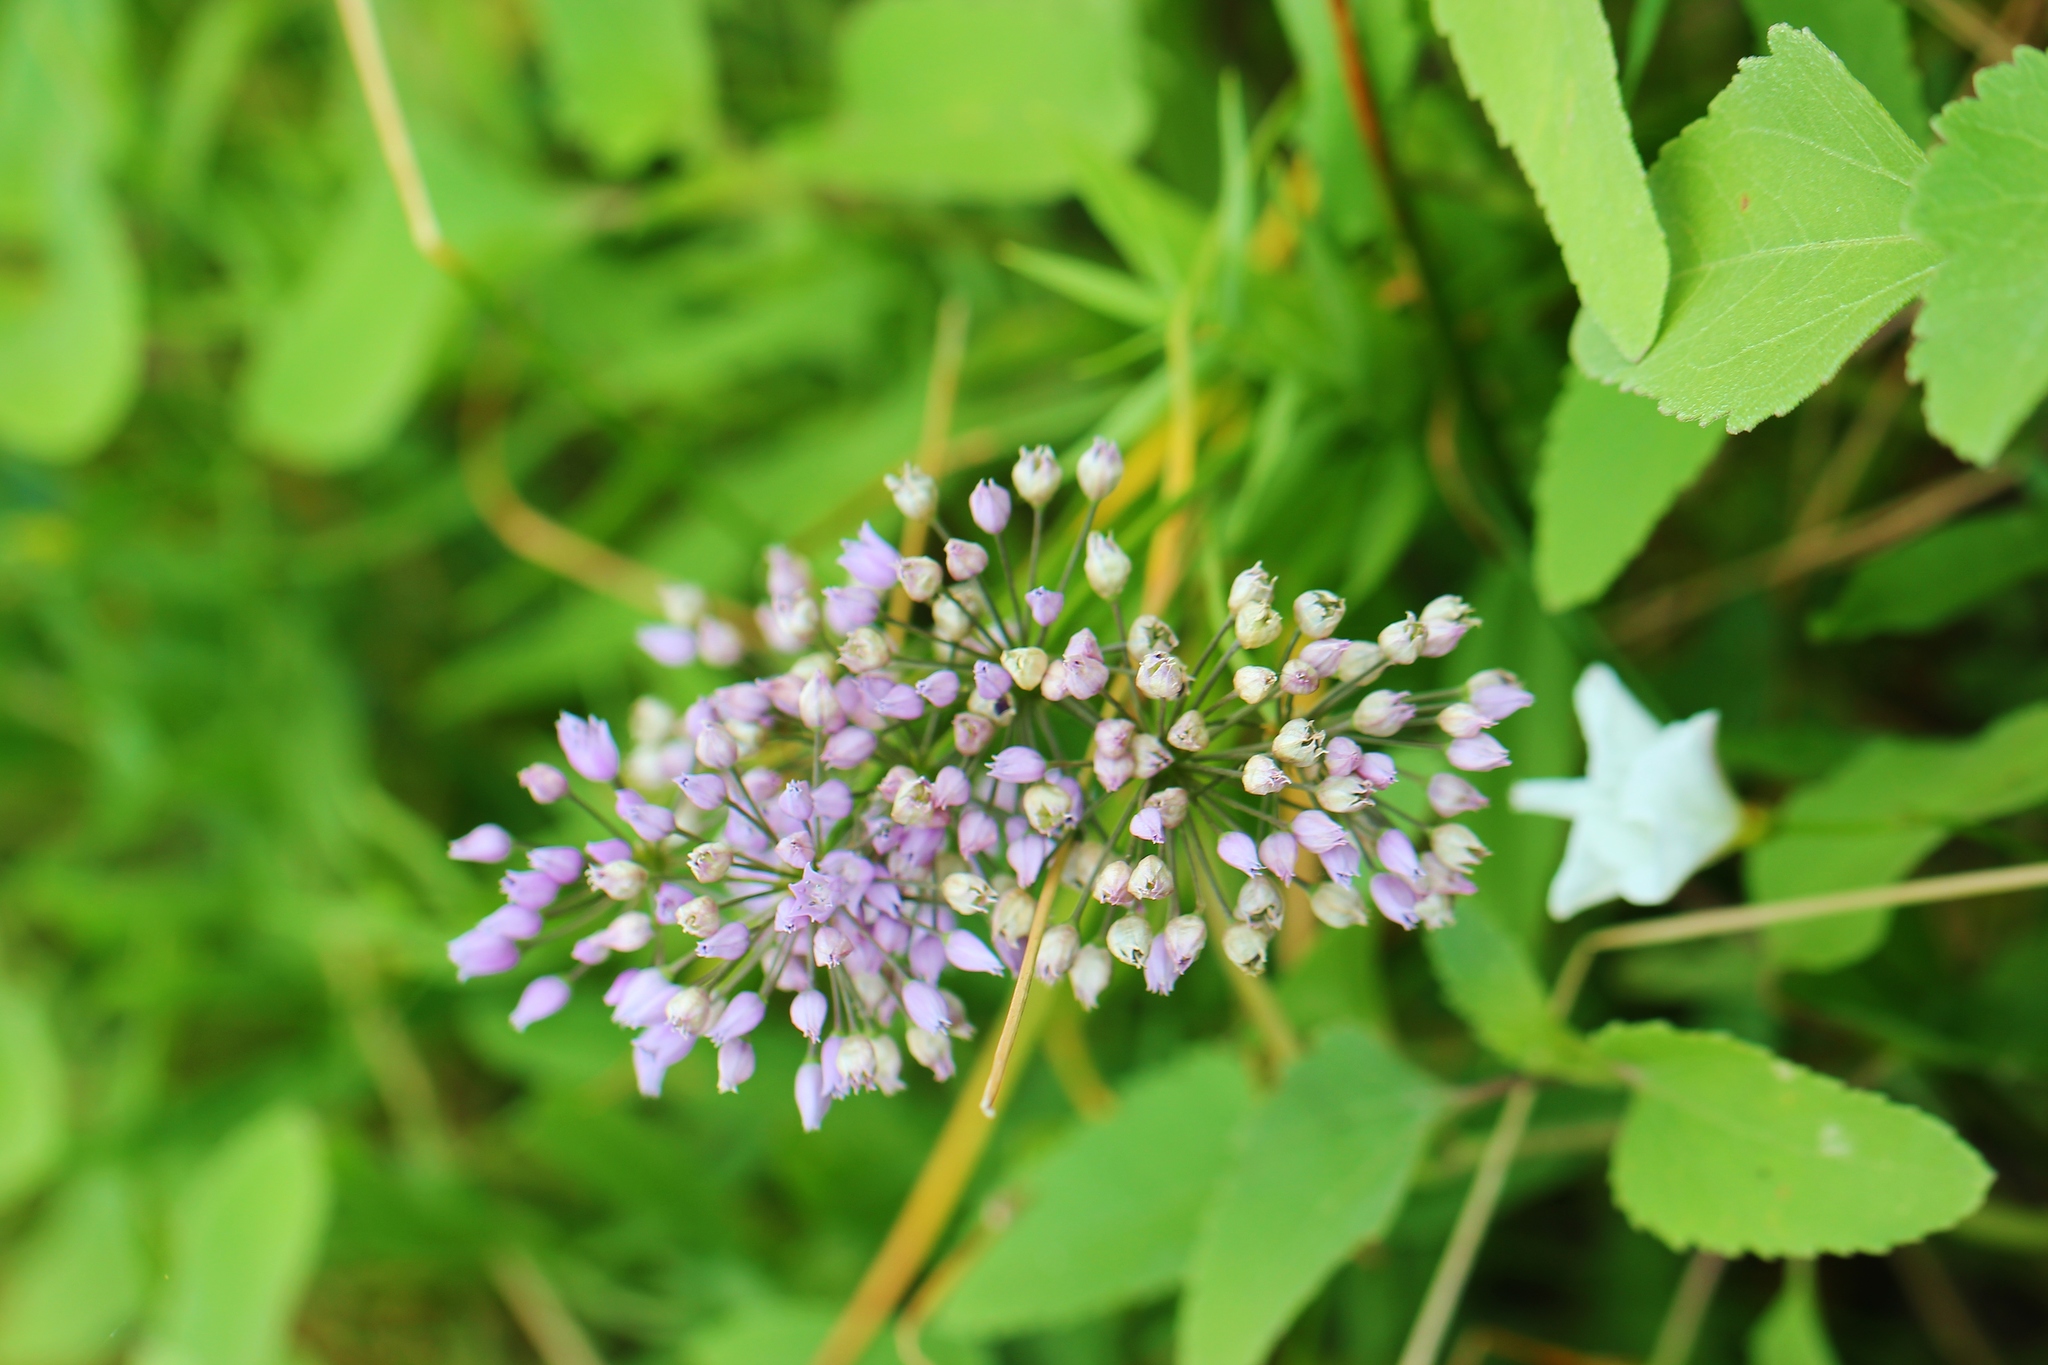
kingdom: Plantae
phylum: Tracheophyta
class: Liliopsida
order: Asparagales
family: Amaryllidaceae
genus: Allium
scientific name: Allium angulosum
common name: Mouse garlic
